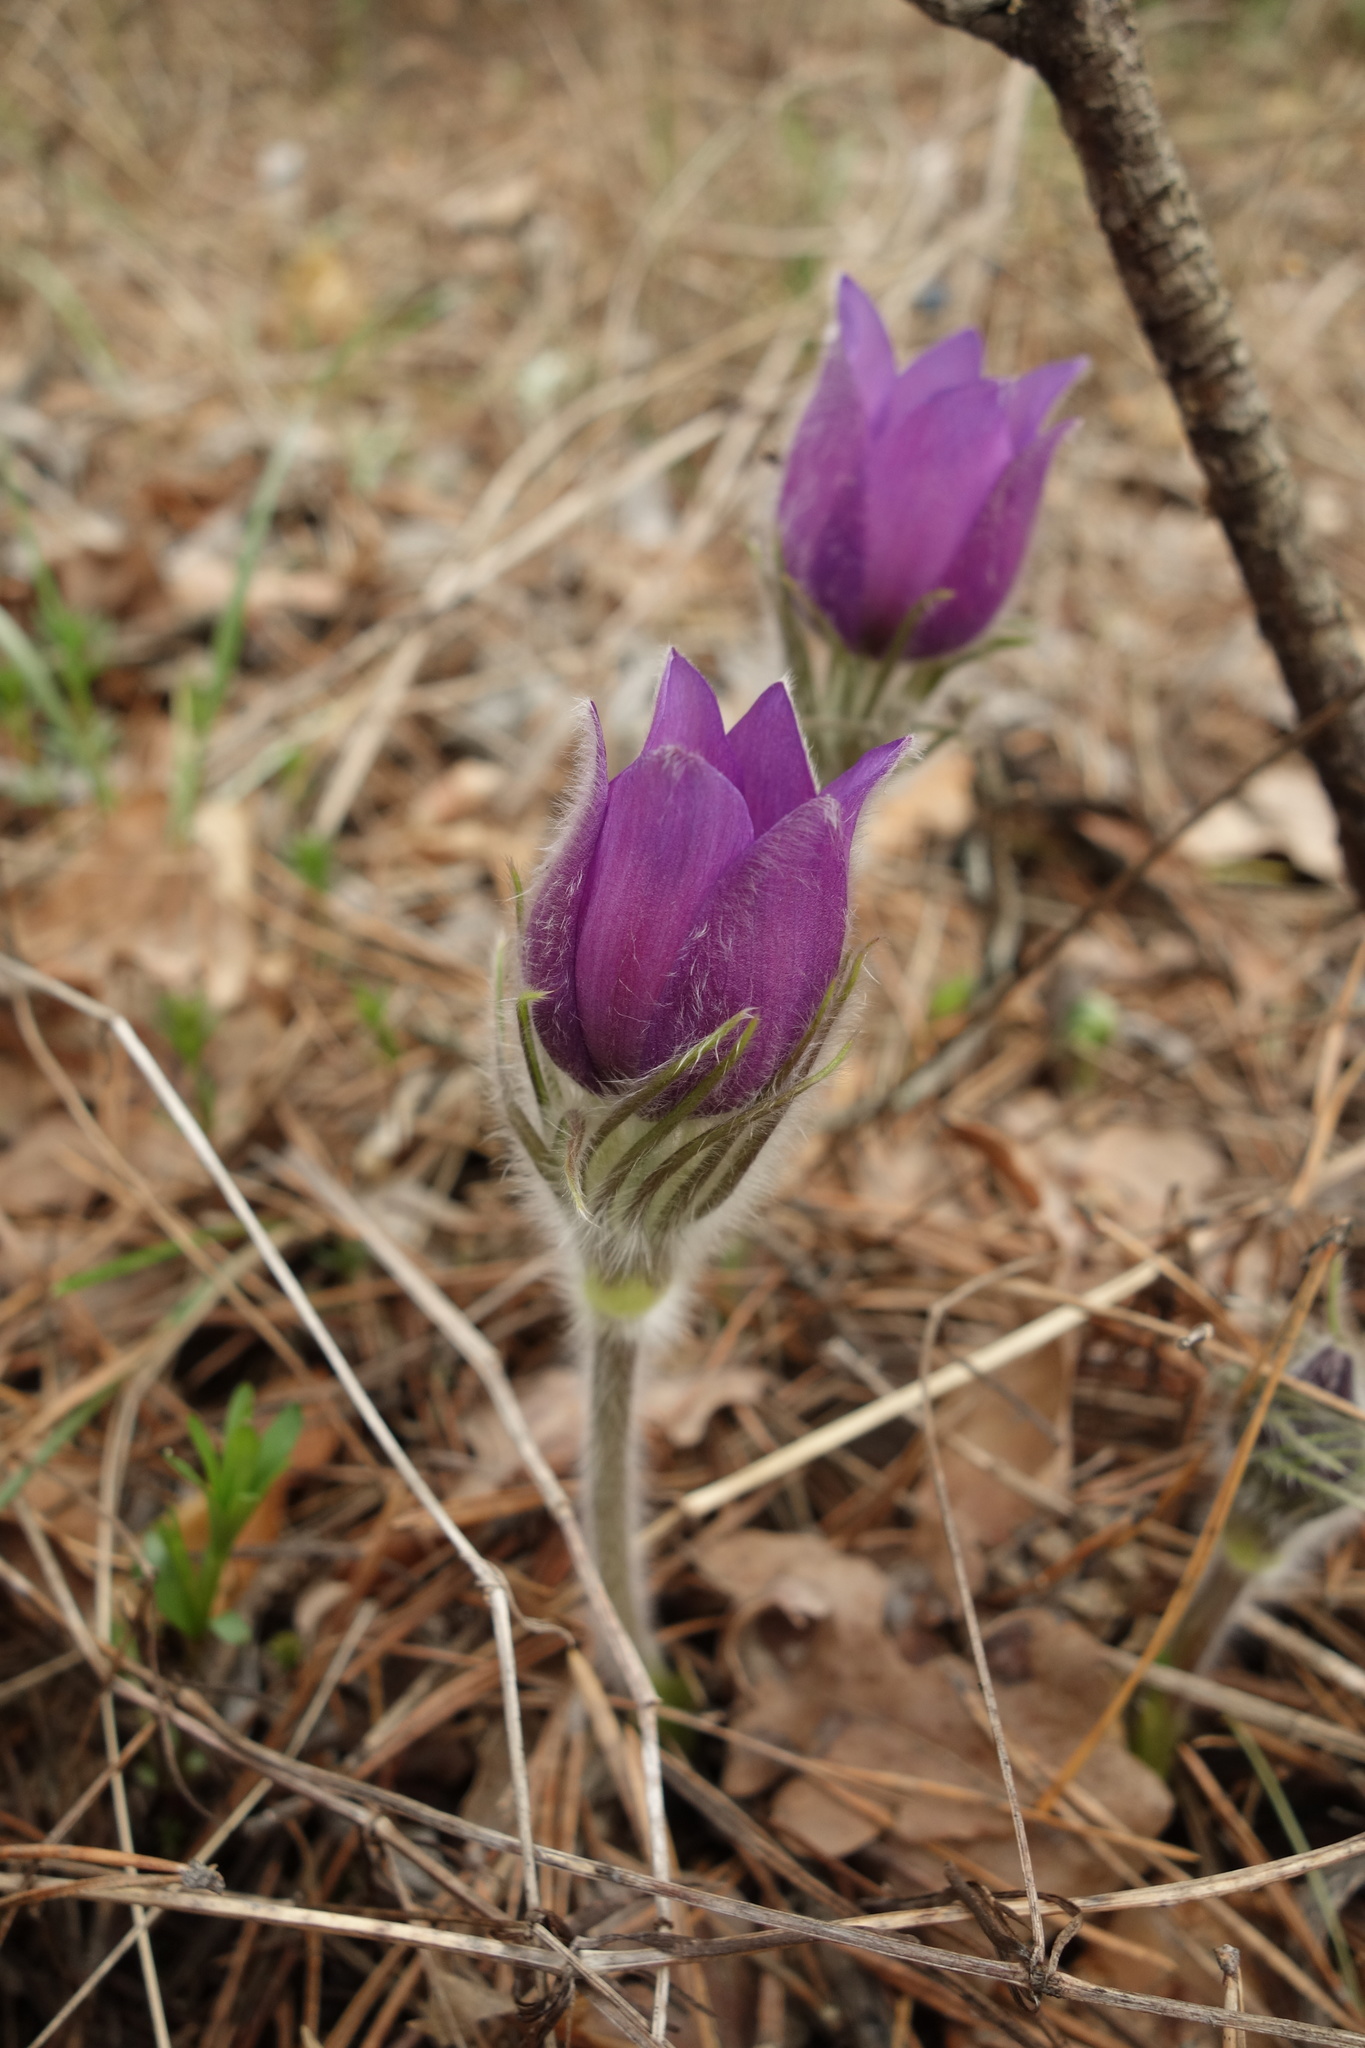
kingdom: Plantae
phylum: Tracheophyta
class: Magnoliopsida
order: Ranunculales
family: Ranunculaceae
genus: Pulsatilla
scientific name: Pulsatilla patens
